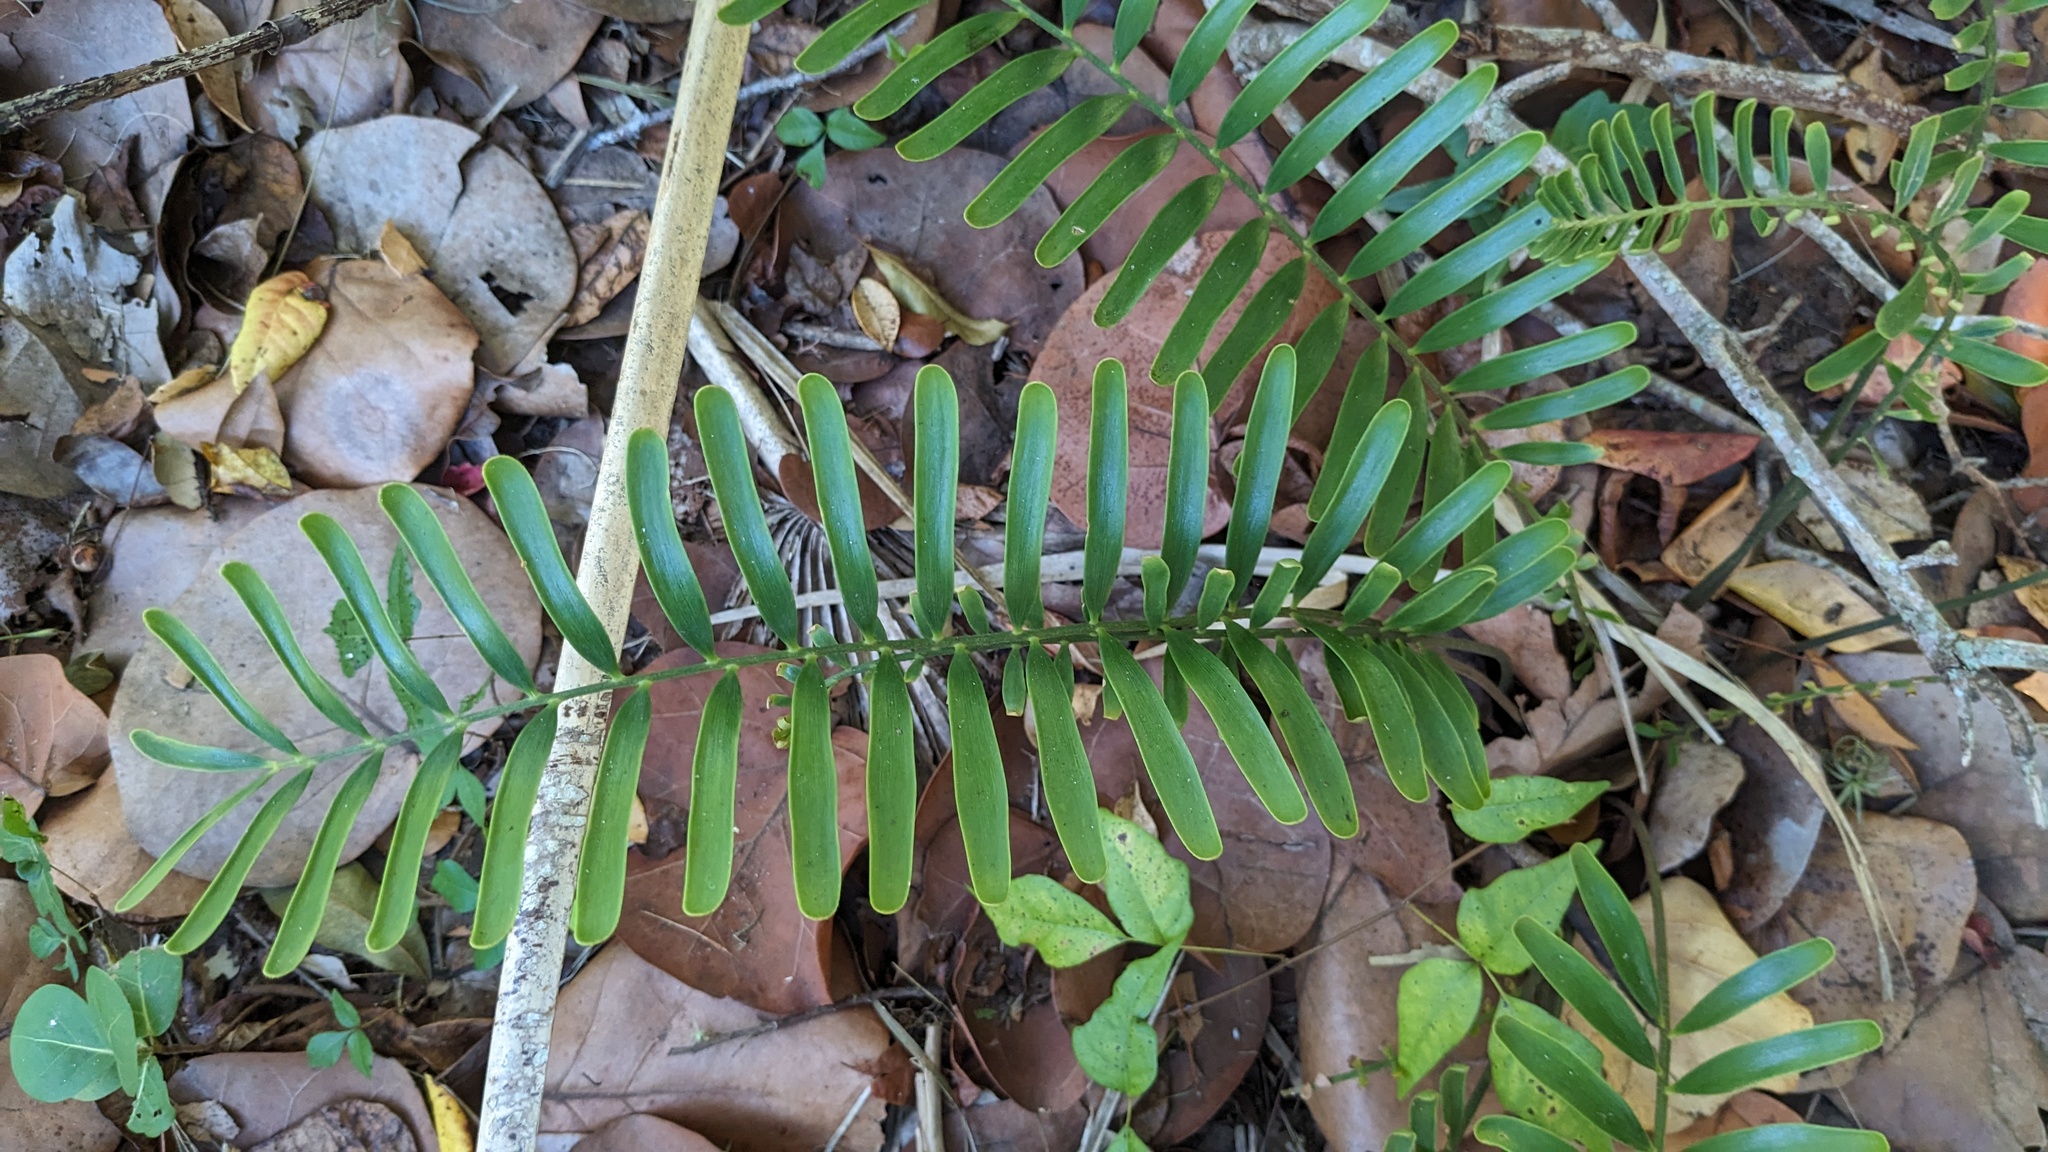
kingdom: Plantae
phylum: Tracheophyta
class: Cycadopsida
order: Cycadales
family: Zamiaceae
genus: Zamia
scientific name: Zamia integrifolia
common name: Florida arrowroot
